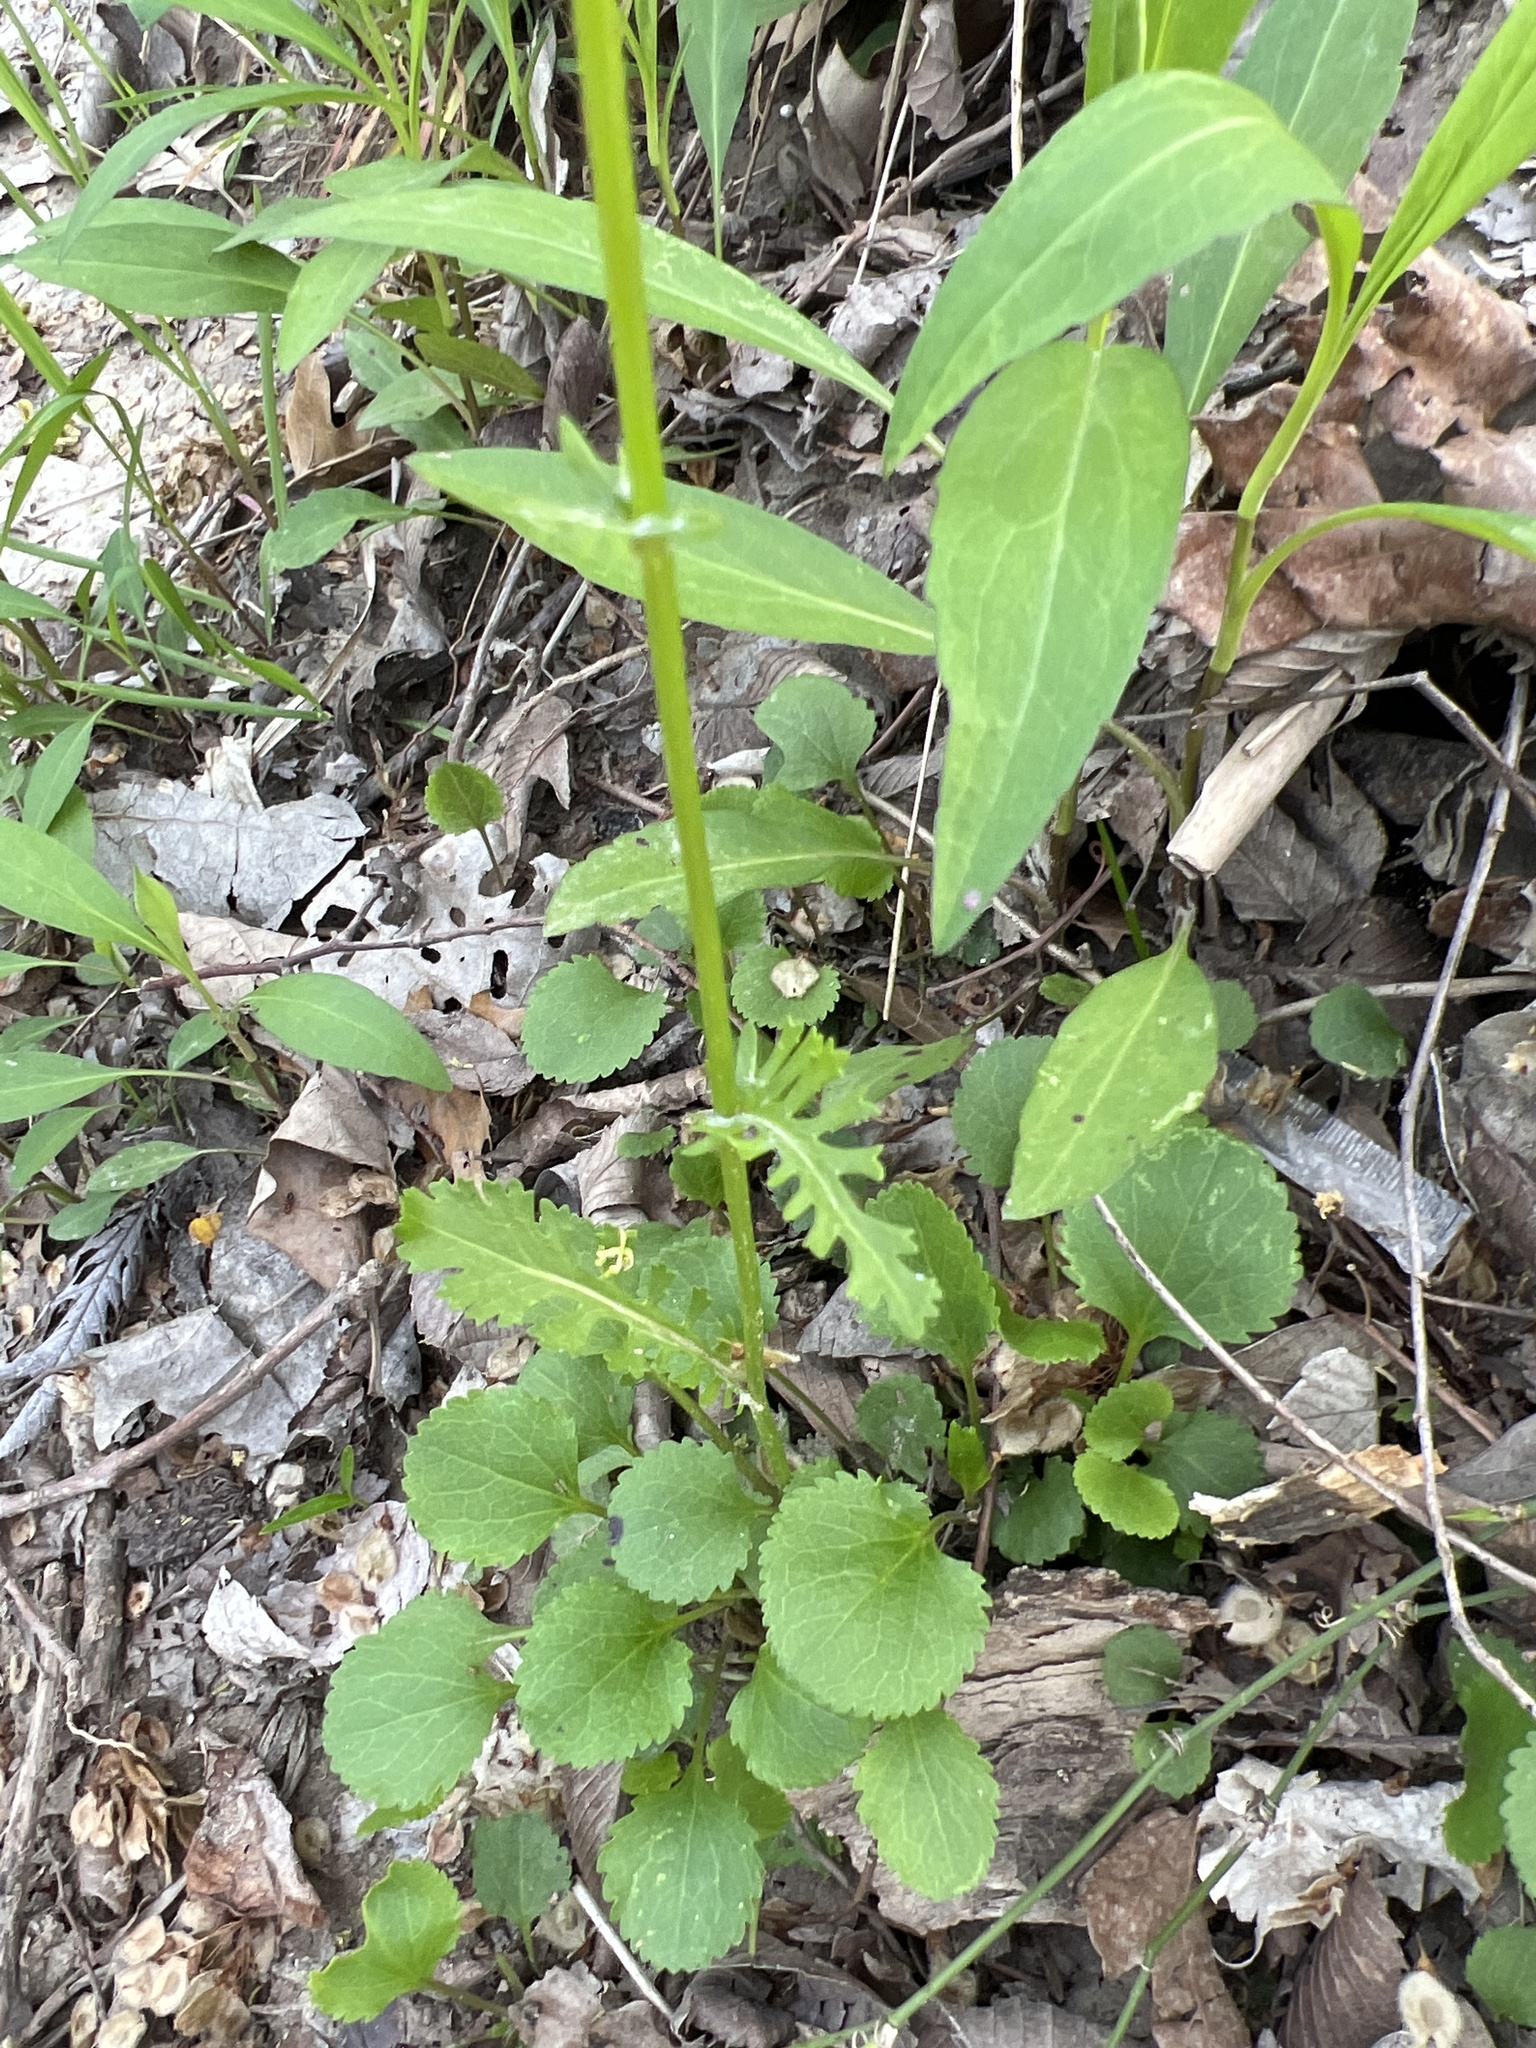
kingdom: Plantae
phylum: Tracheophyta
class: Magnoliopsida
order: Asterales
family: Asteraceae
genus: Packera
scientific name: Packera obovata
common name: Round-leaf ragwort
